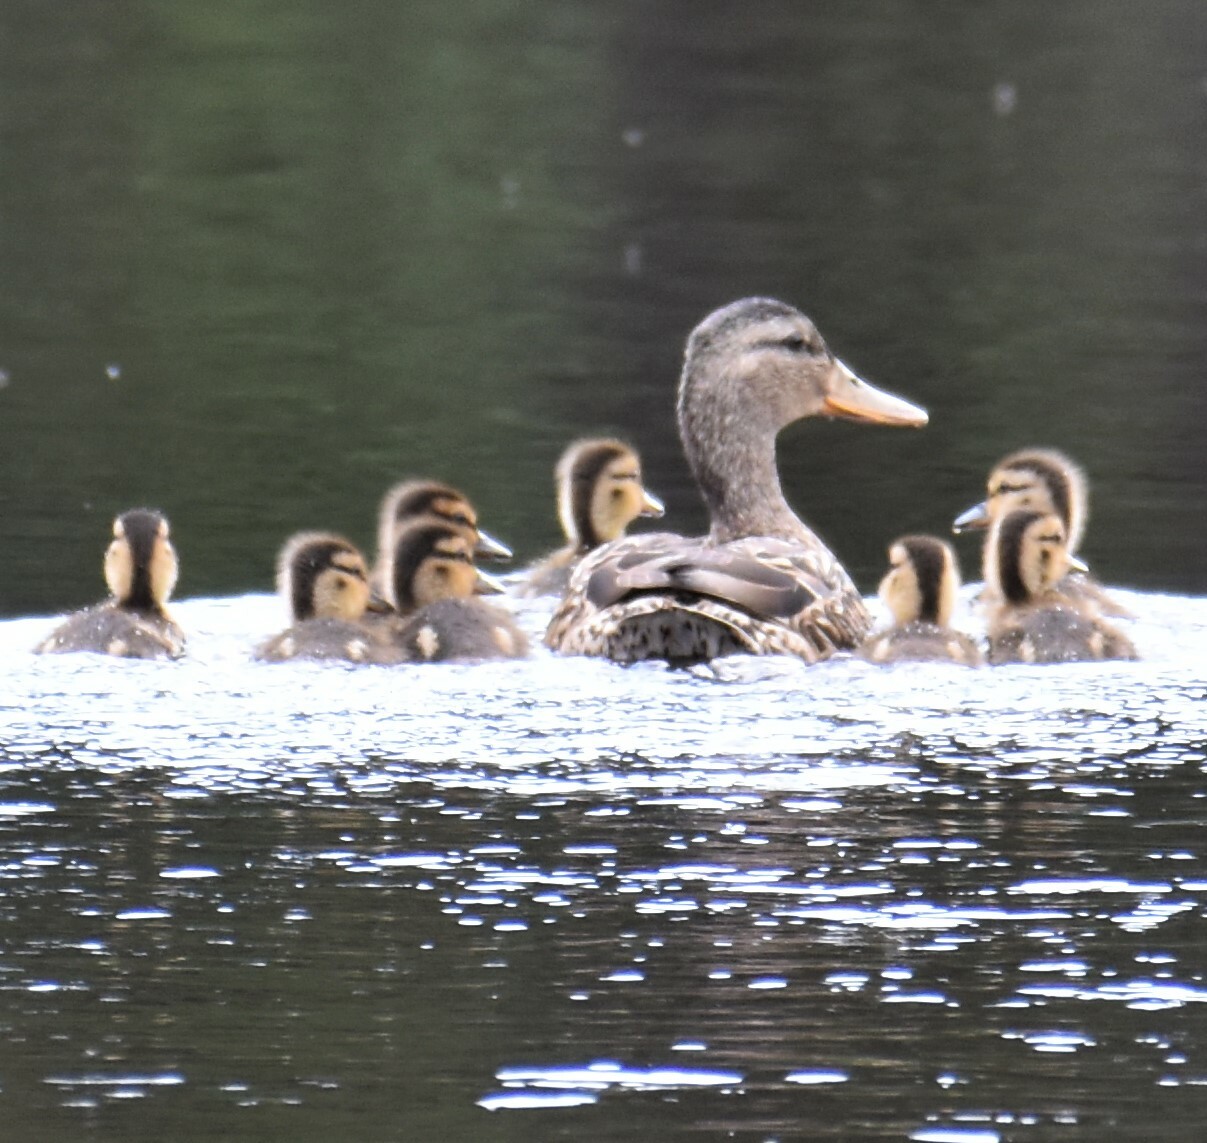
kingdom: Animalia
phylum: Chordata
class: Aves
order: Anseriformes
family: Anatidae
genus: Anas
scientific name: Anas platyrhynchos
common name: Mallard
